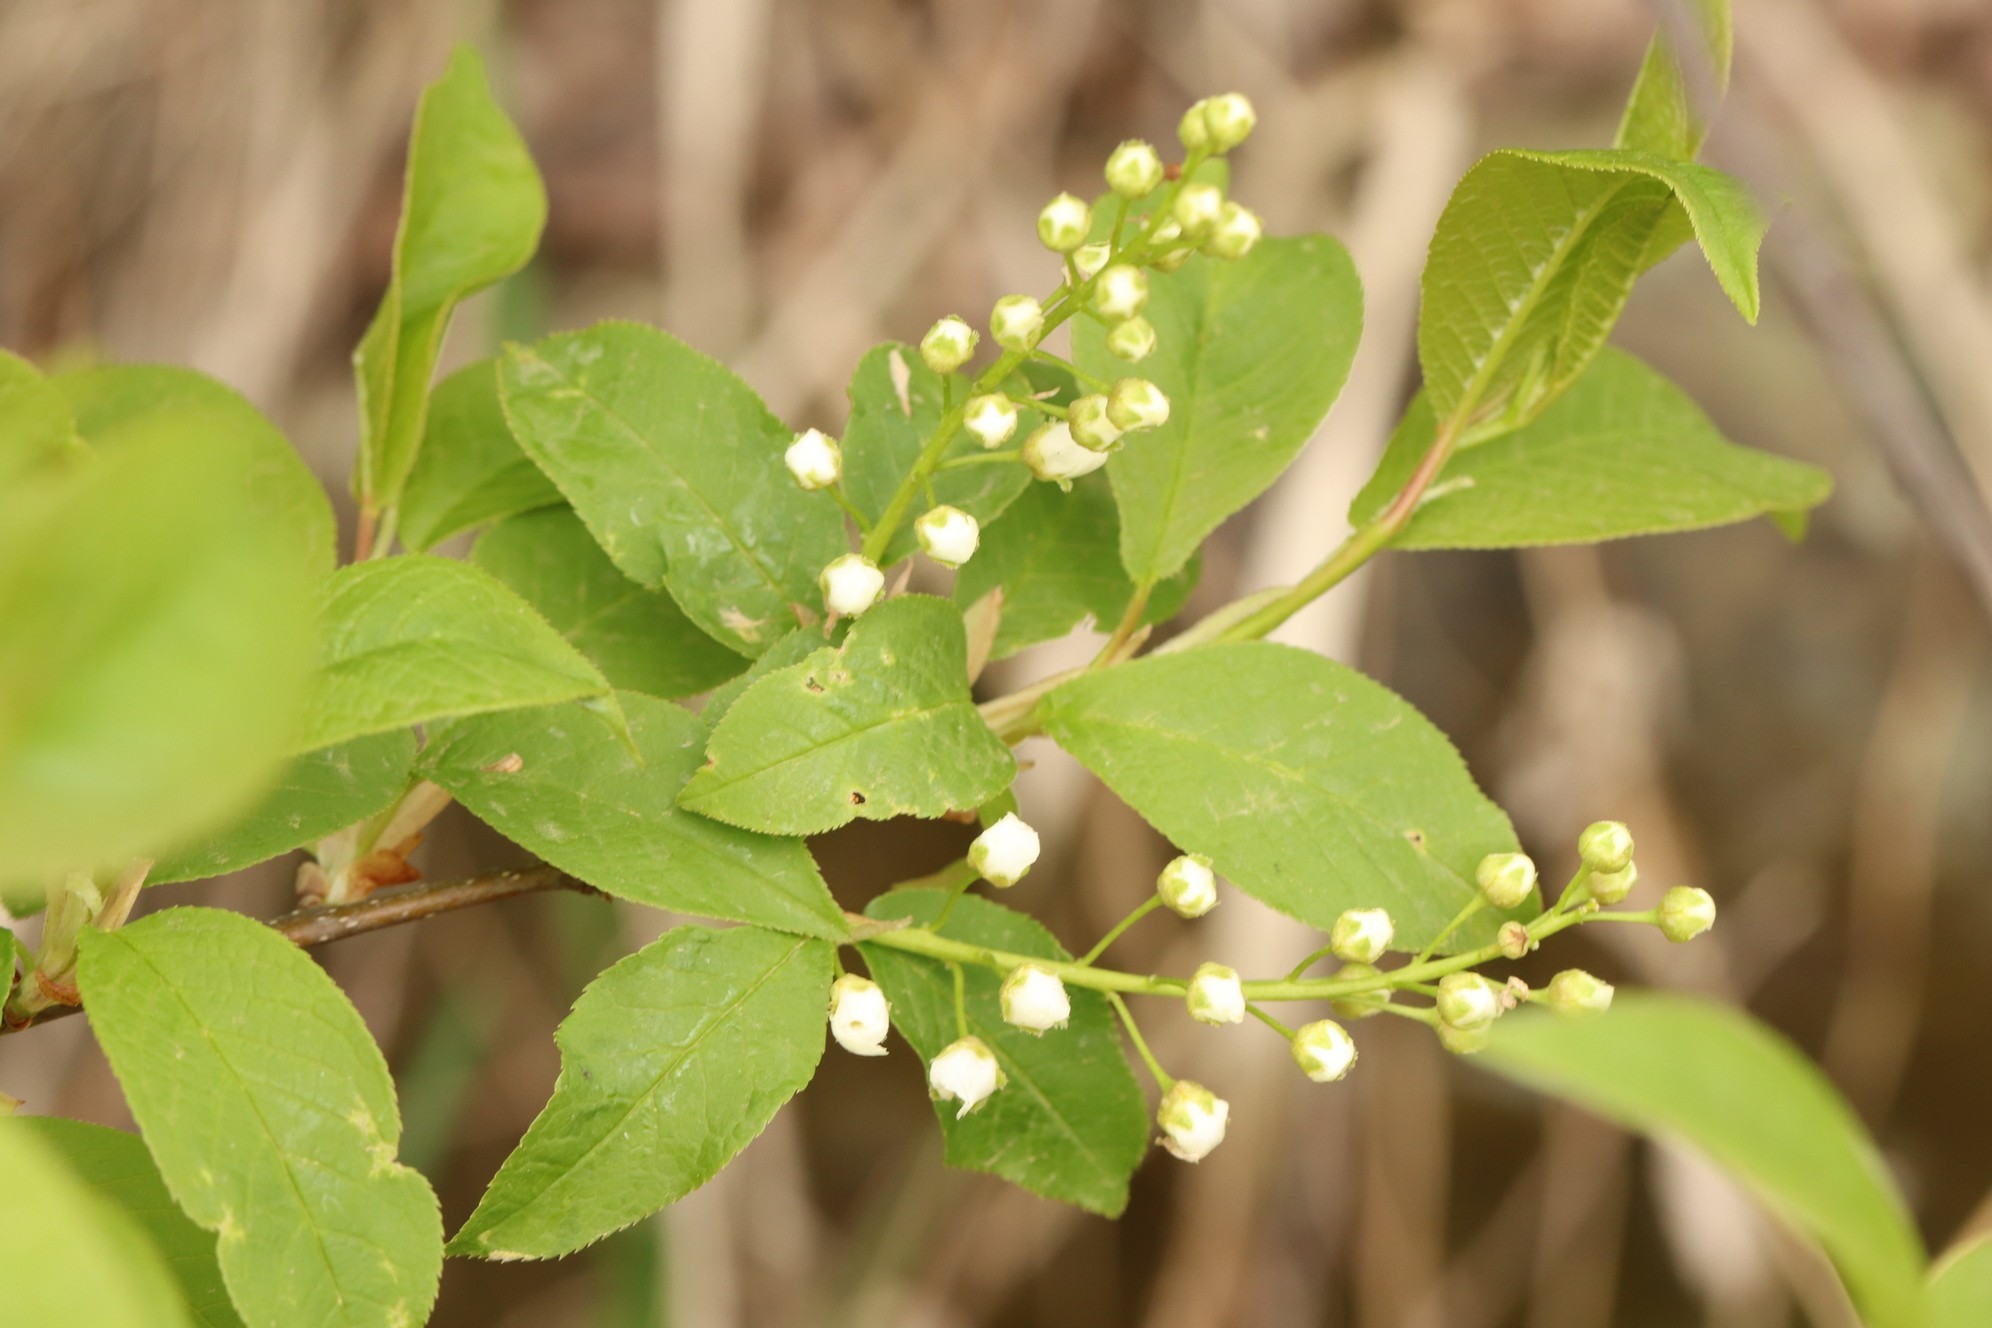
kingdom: Plantae
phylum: Tracheophyta
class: Magnoliopsida
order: Rosales
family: Rosaceae
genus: Prunus
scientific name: Prunus padus
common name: Bird cherry
